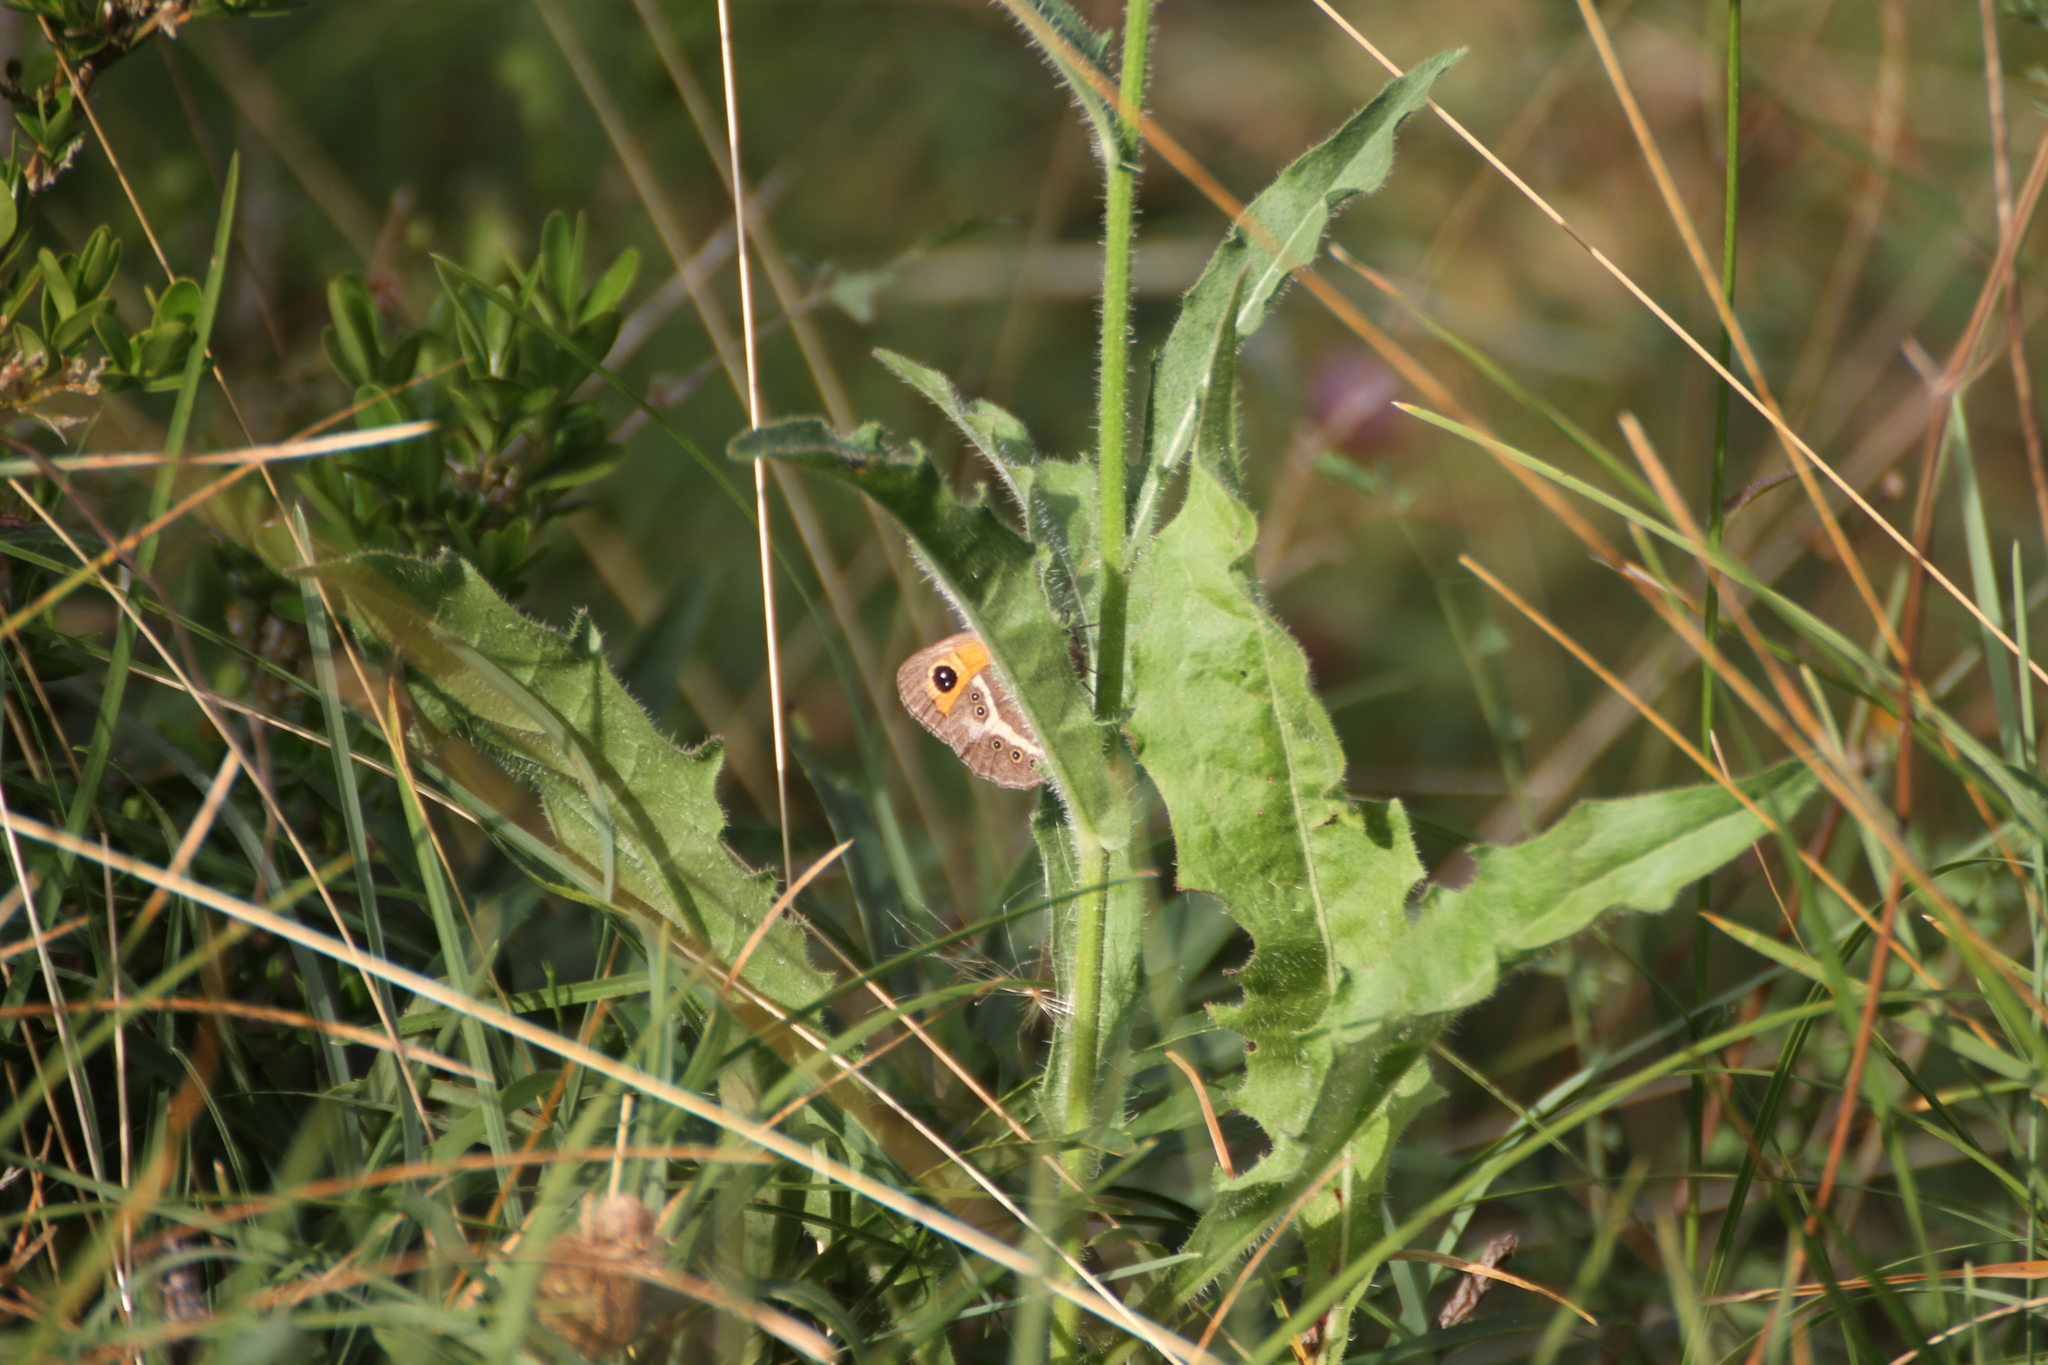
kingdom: Animalia
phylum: Arthropoda
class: Insecta
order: Lepidoptera
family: Nymphalidae
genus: Pyronia
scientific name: Pyronia bathseba
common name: Spanish gatekeeper
